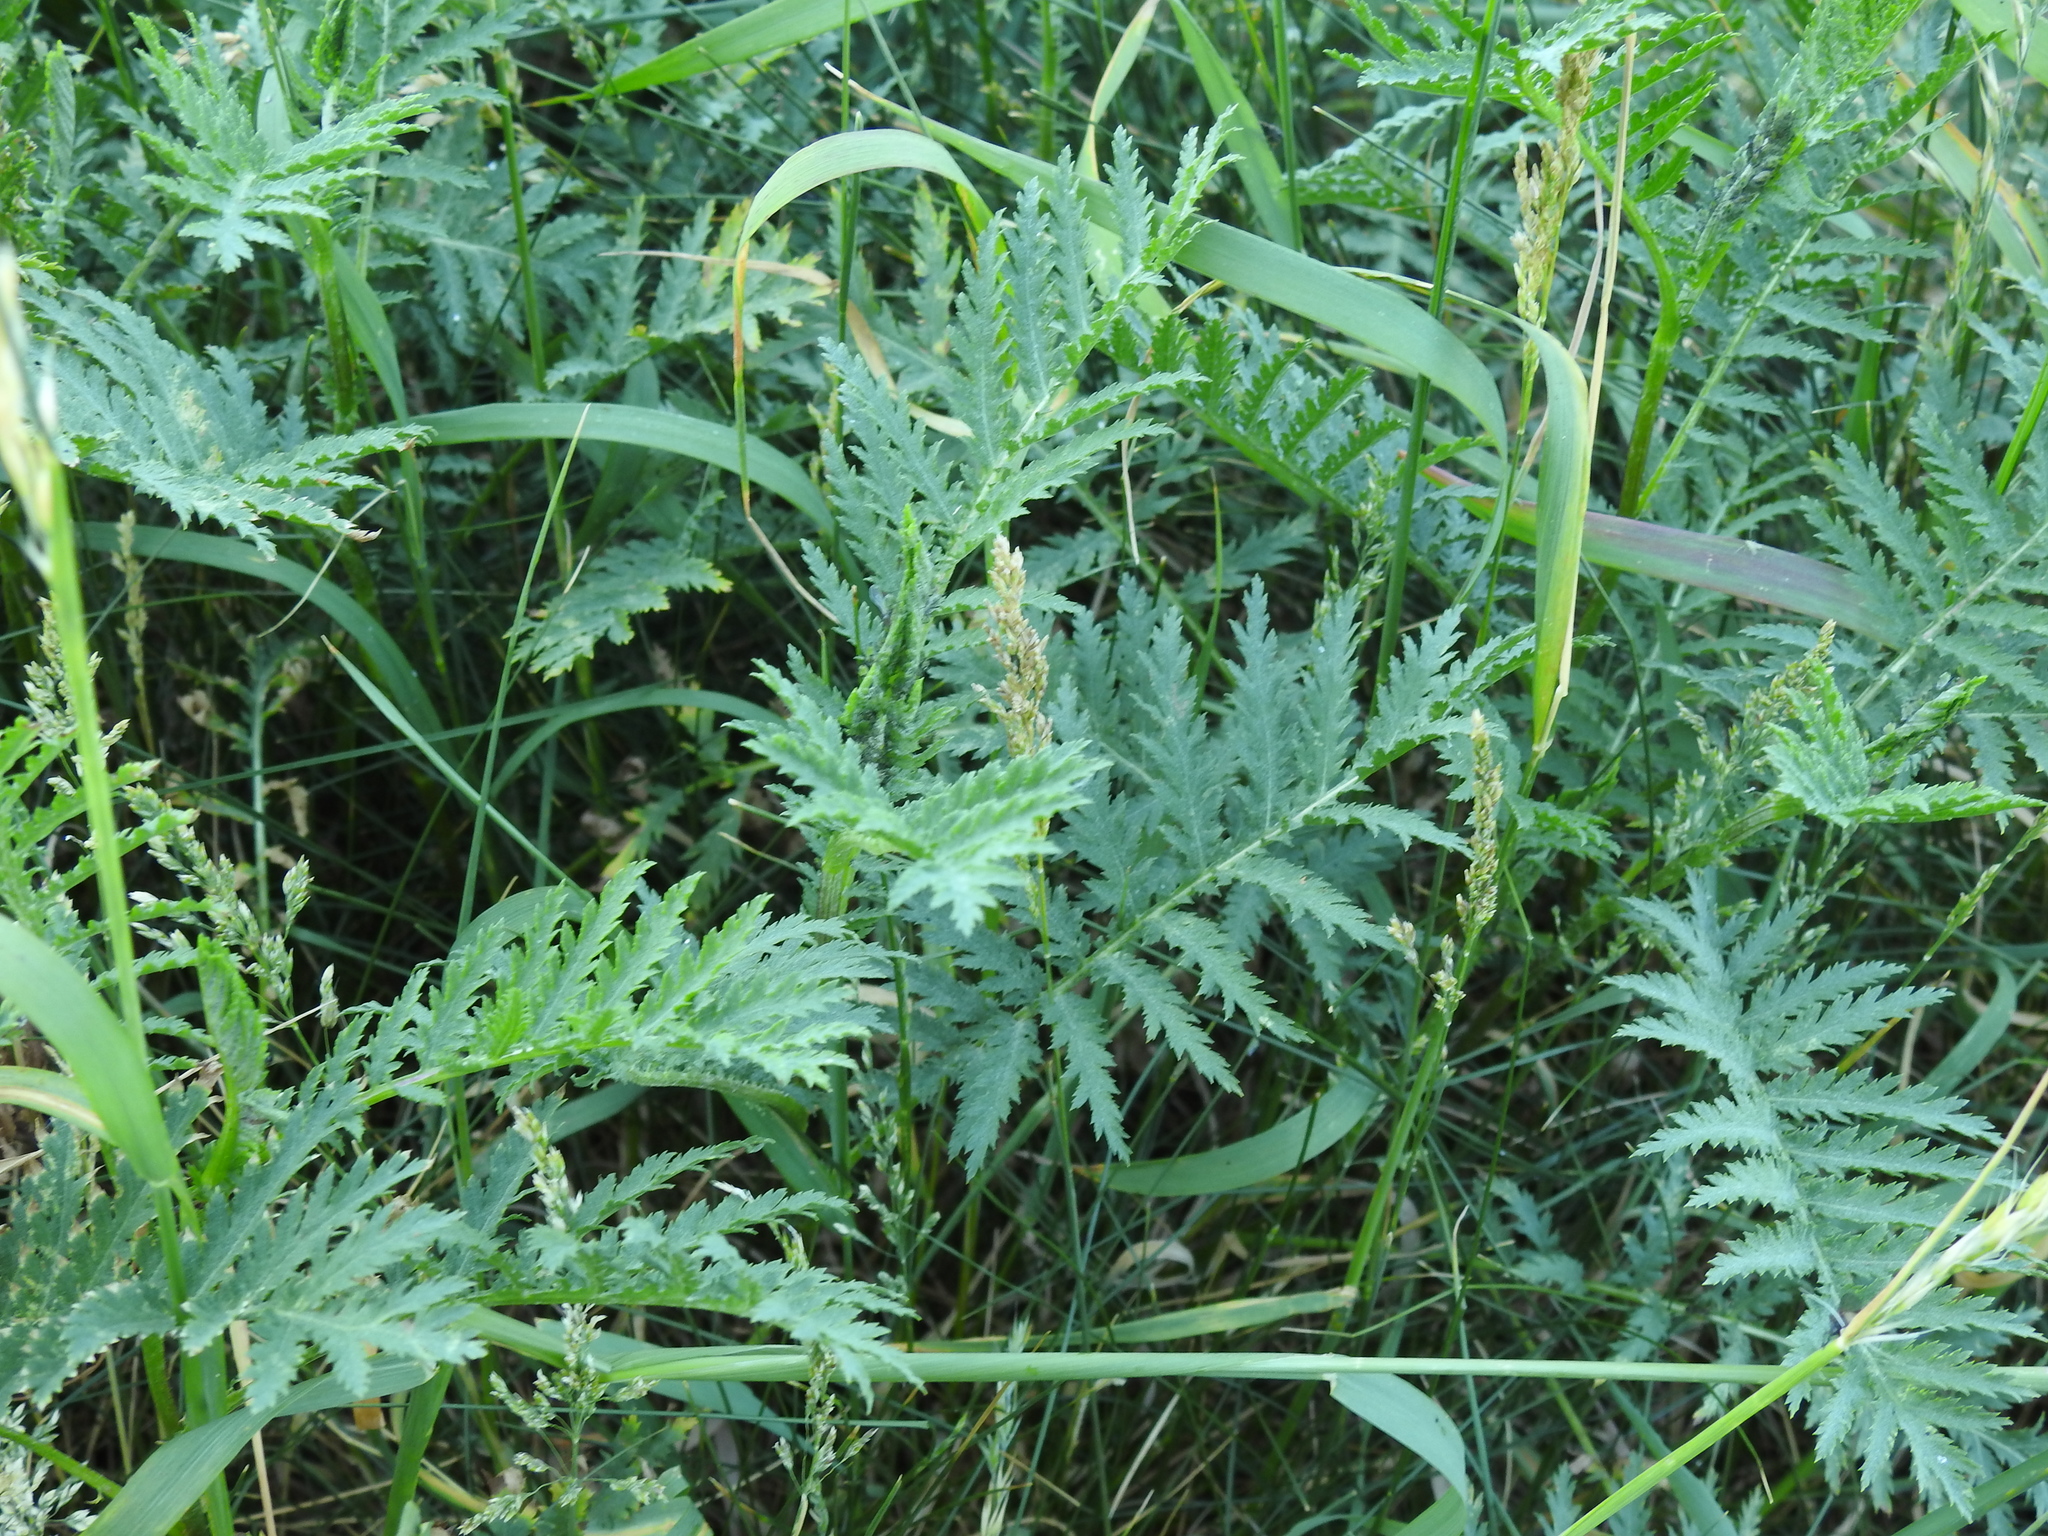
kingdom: Plantae
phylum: Tracheophyta
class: Magnoliopsida
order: Asterales
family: Asteraceae
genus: Tanacetum
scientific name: Tanacetum vulgare
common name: Common tansy
